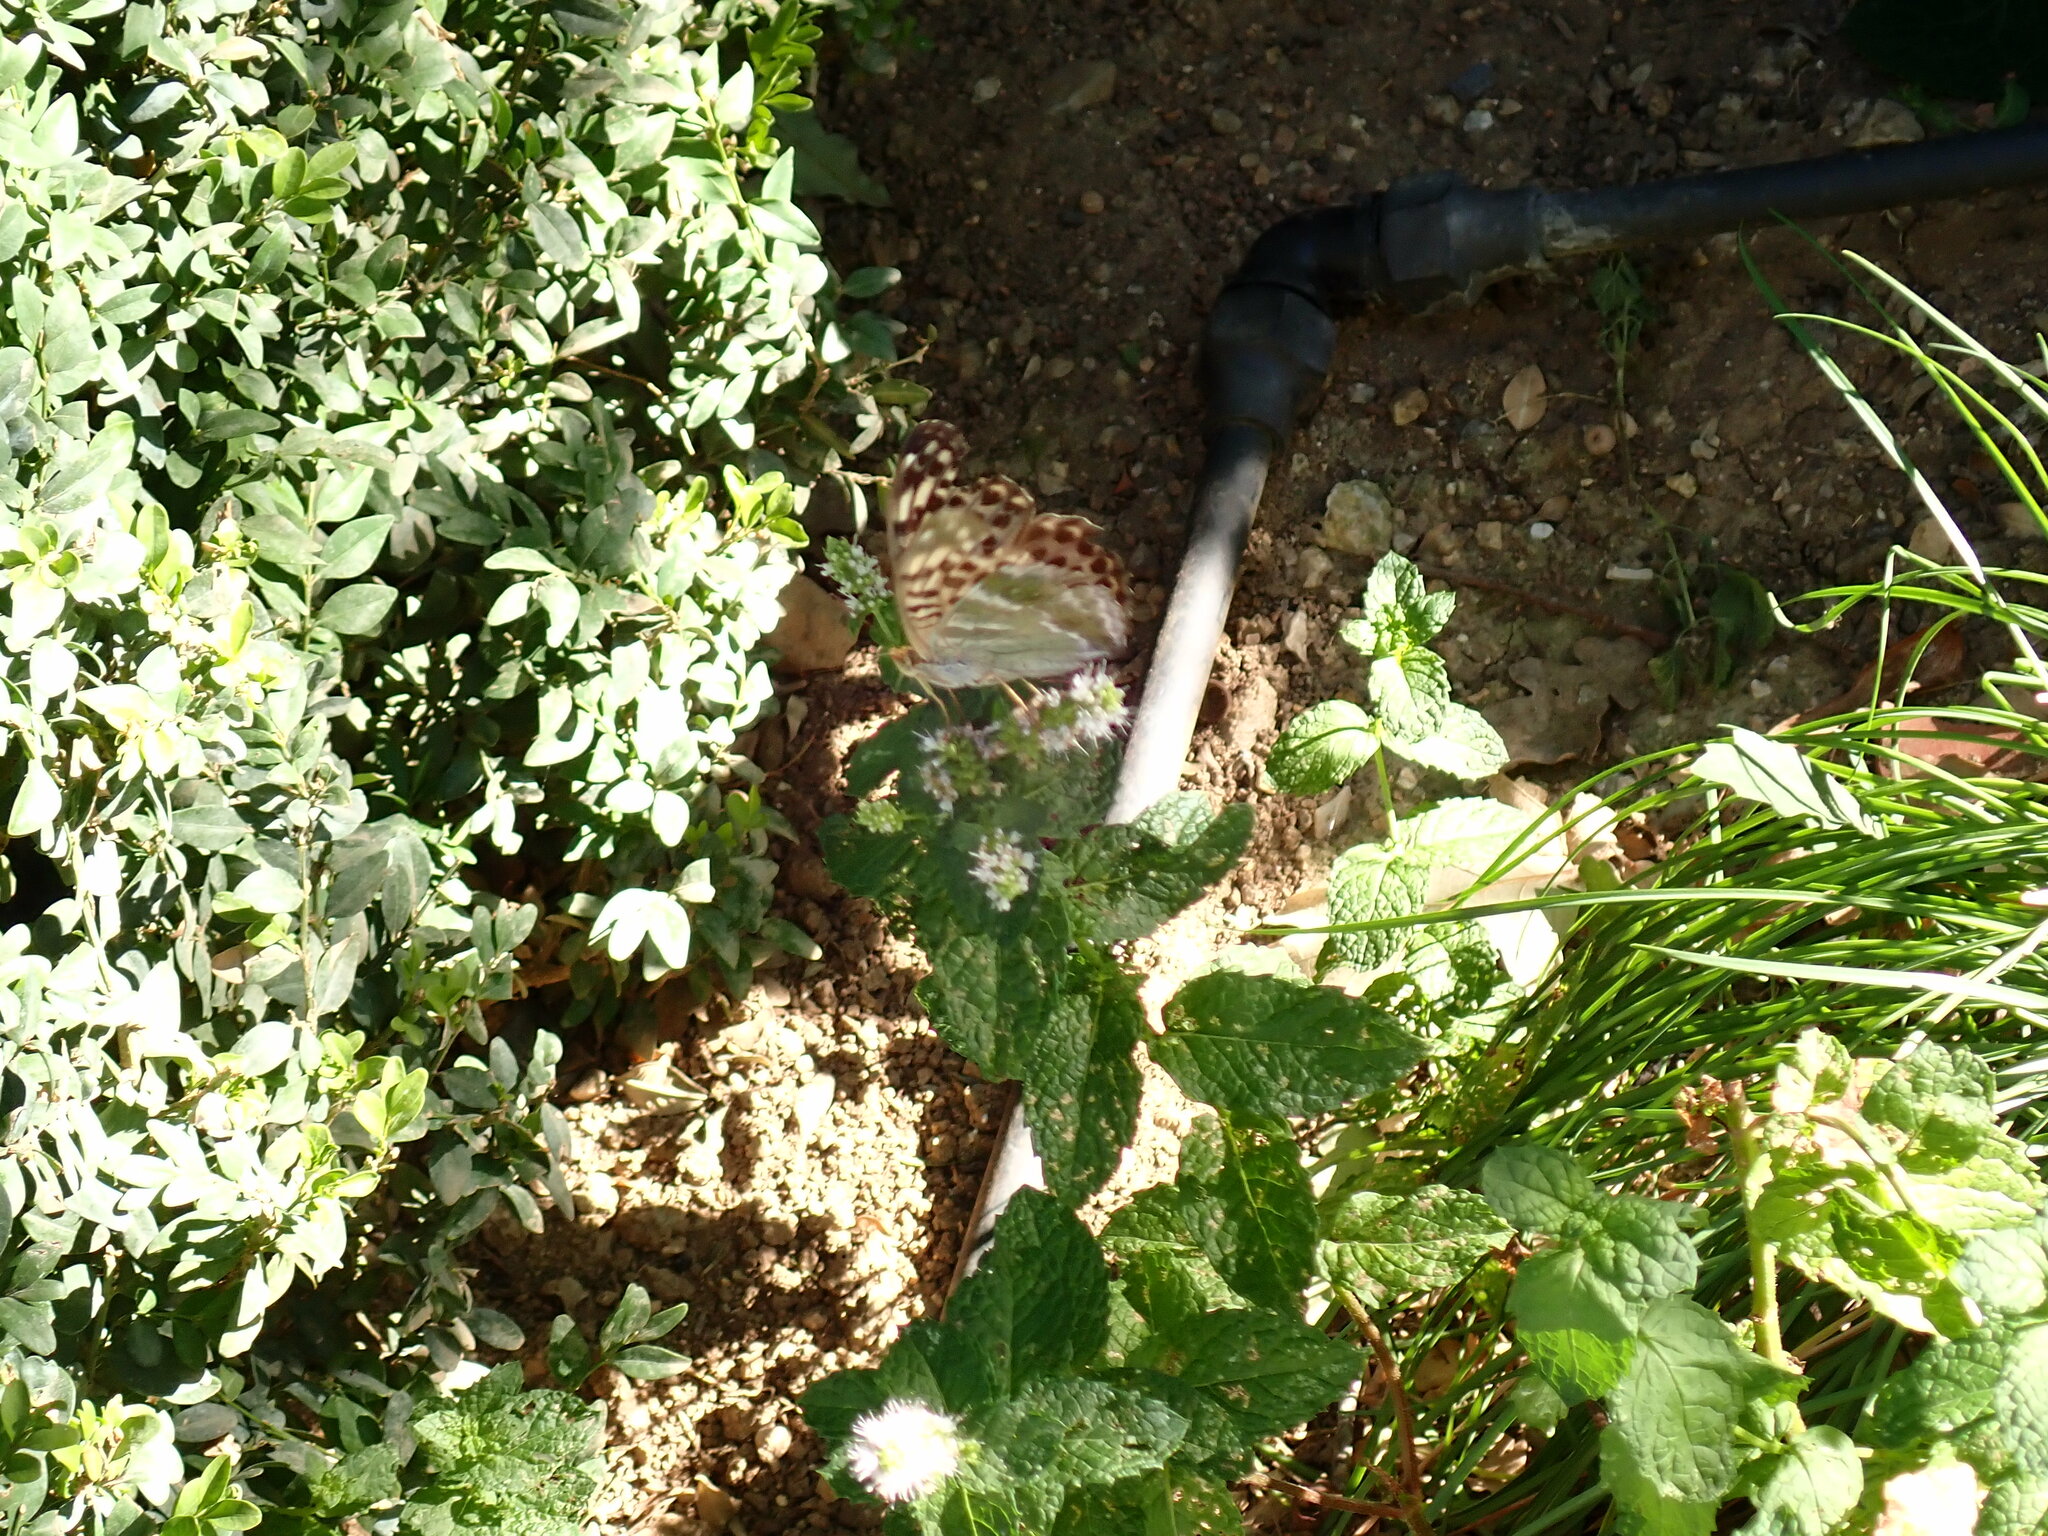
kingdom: Animalia
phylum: Arthropoda
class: Insecta
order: Lepidoptera
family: Nymphalidae
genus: Argynnis
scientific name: Argynnis paphia
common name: Silver-washed fritillary
